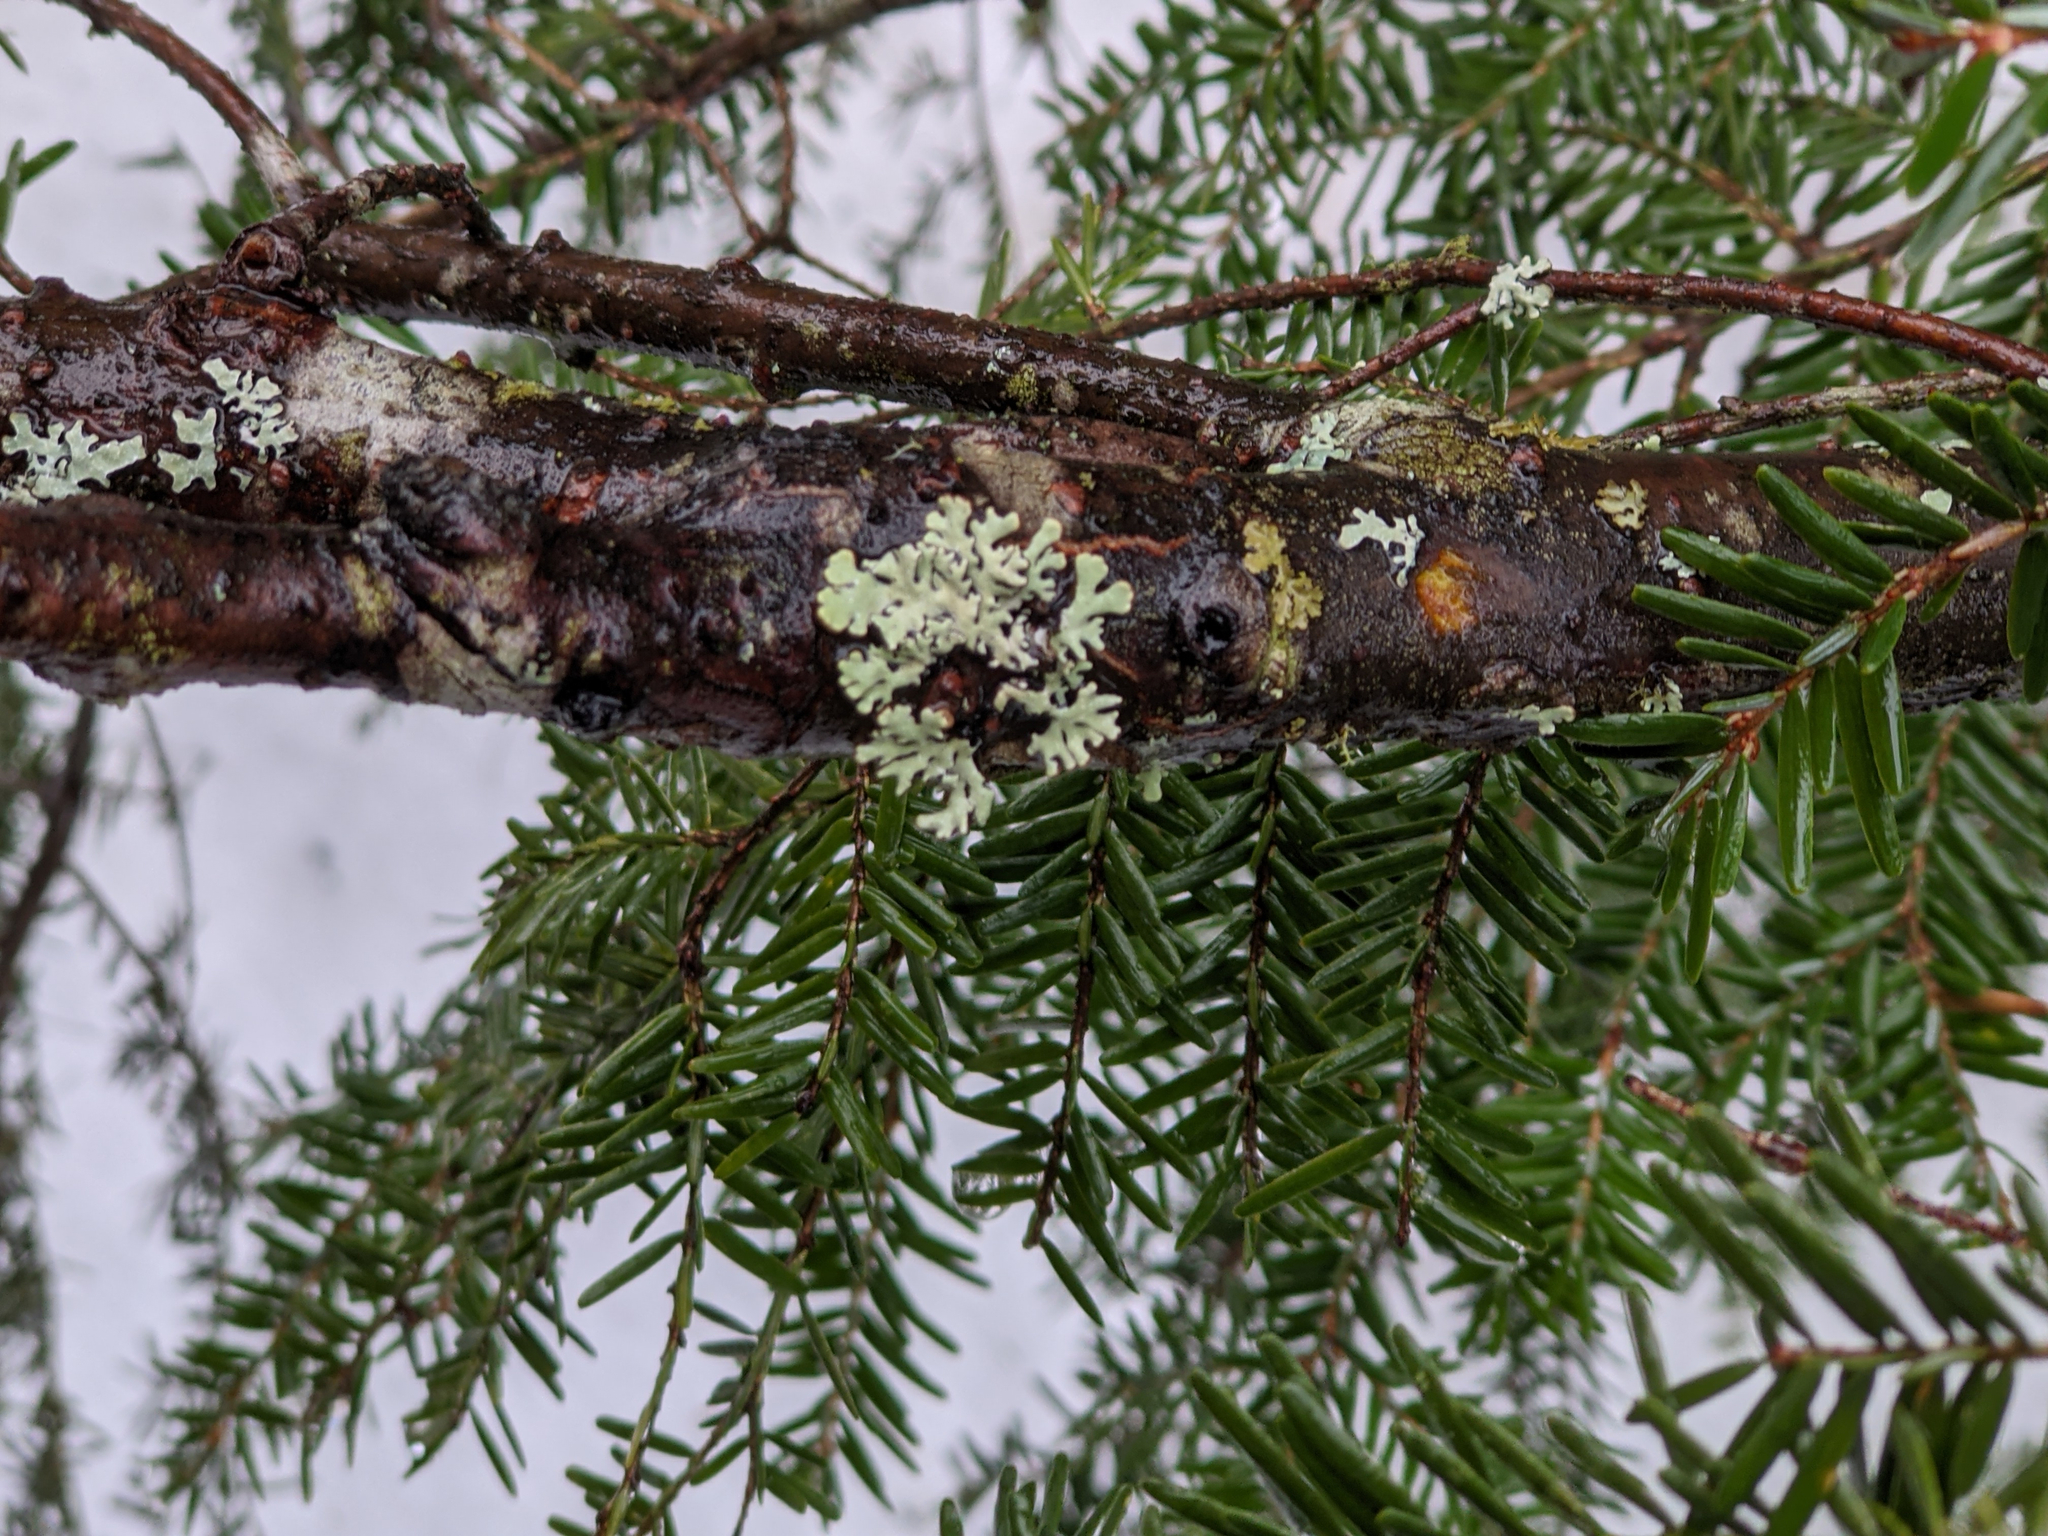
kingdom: Plantae
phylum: Tracheophyta
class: Pinopsida
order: Pinales
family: Pinaceae
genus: Tsuga
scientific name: Tsuga canadensis
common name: Eastern hemlock
